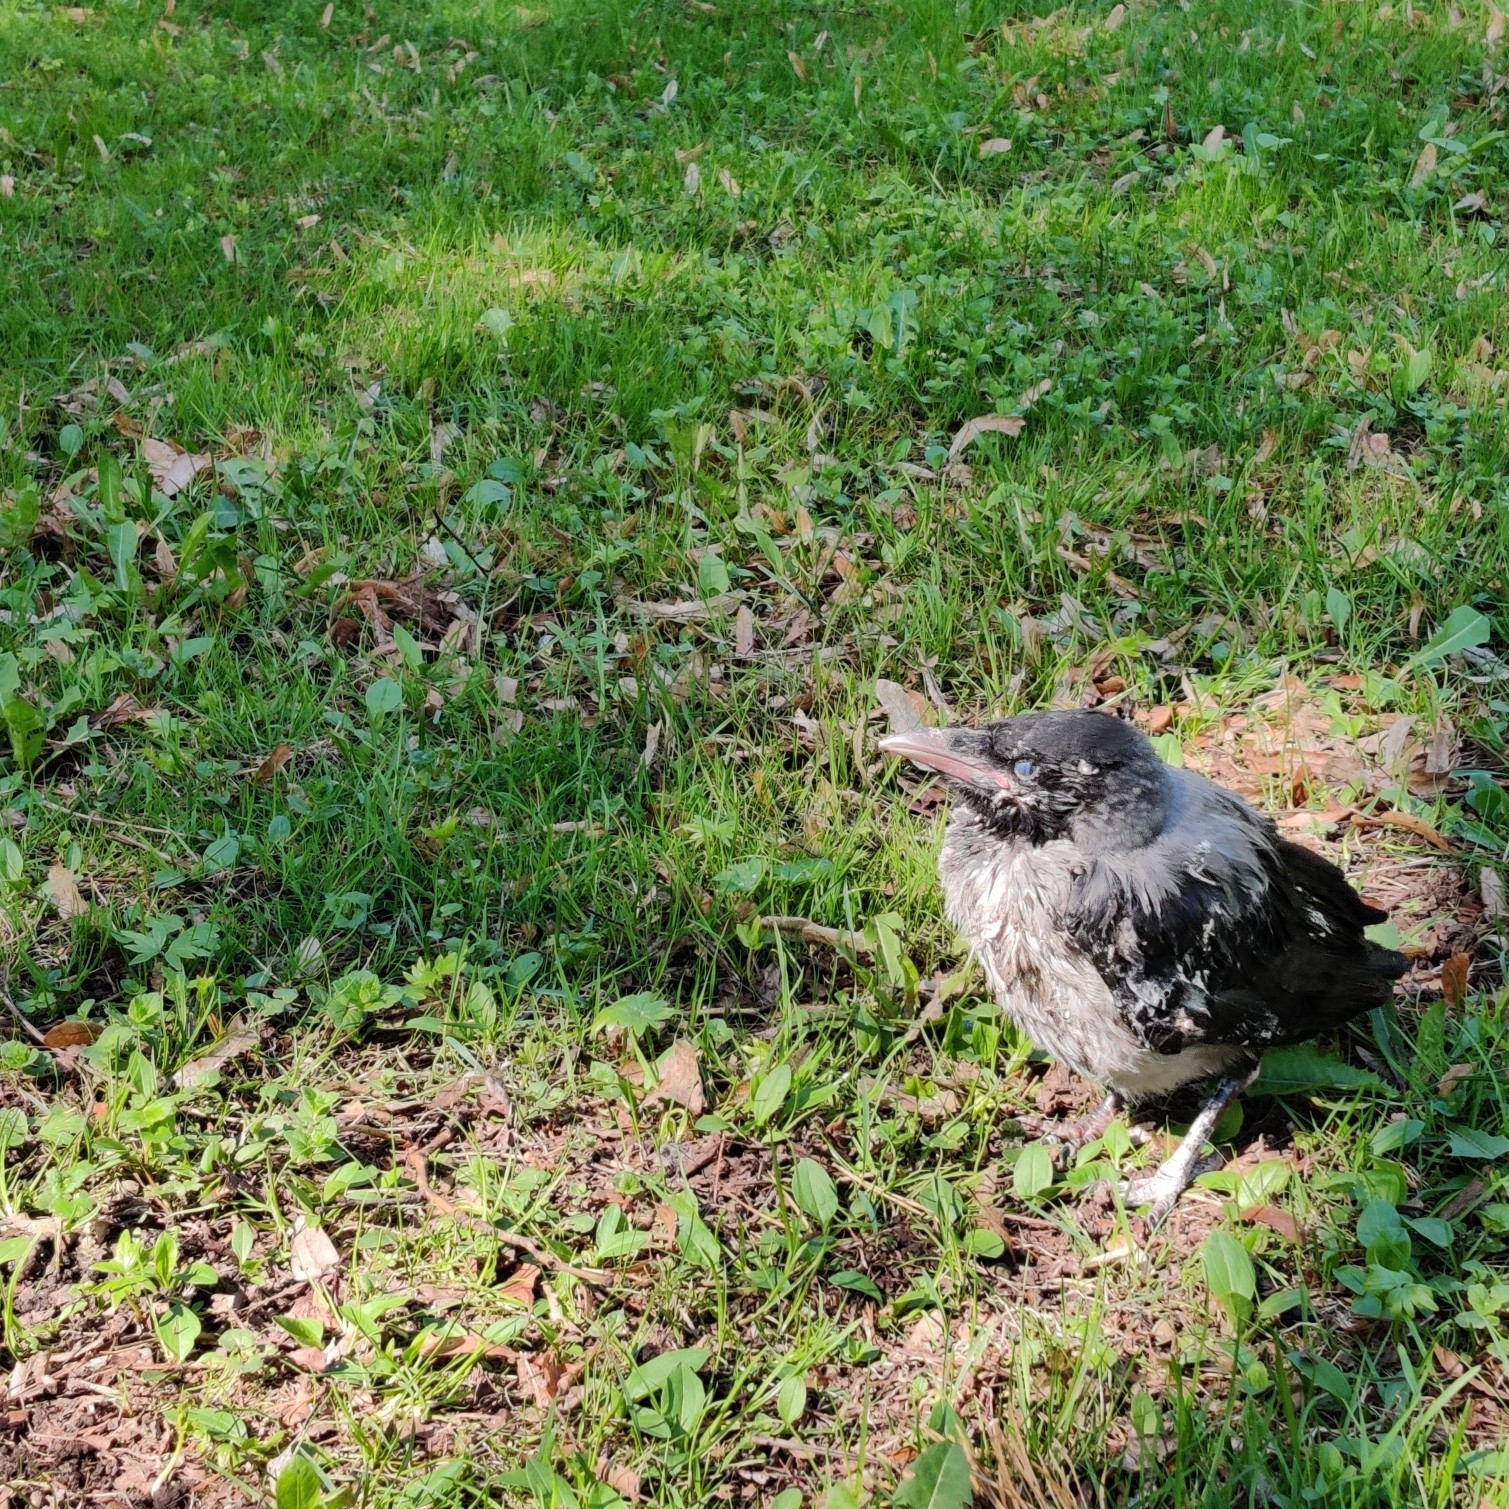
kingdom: Animalia
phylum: Chordata
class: Aves
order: Passeriformes
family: Corvidae
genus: Corvus
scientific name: Corvus cornix
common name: Hooded crow
